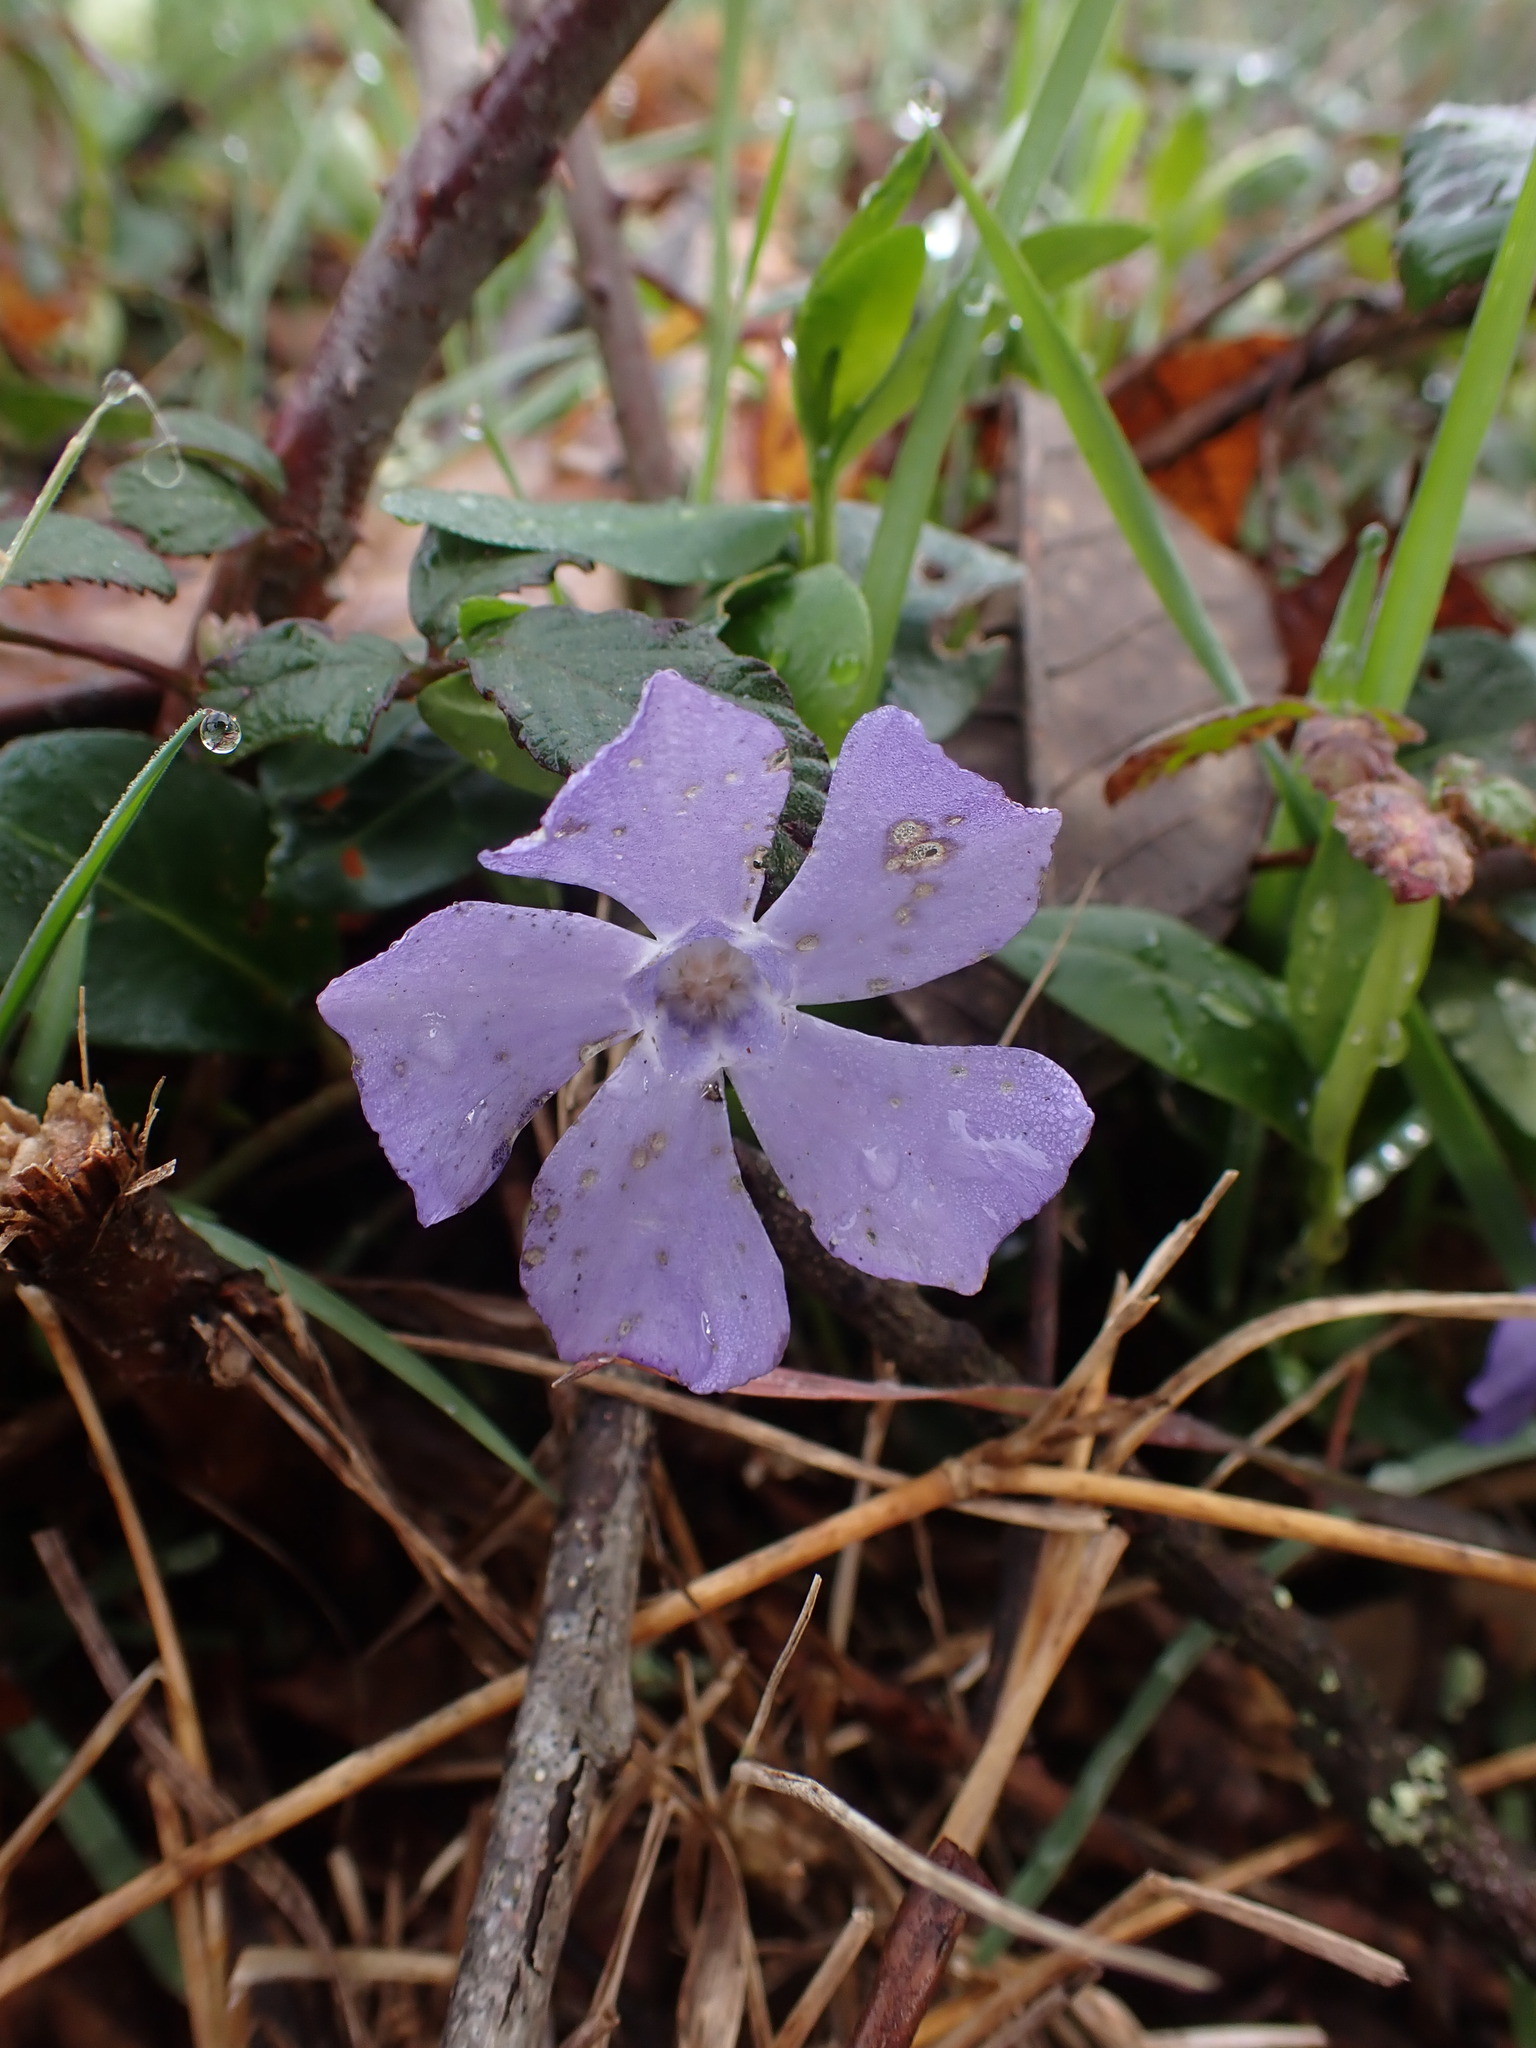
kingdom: Plantae
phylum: Tracheophyta
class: Magnoliopsida
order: Gentianales
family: Apocynaceae
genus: Vinca
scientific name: Vinca minor
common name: Lesser periwinkle
